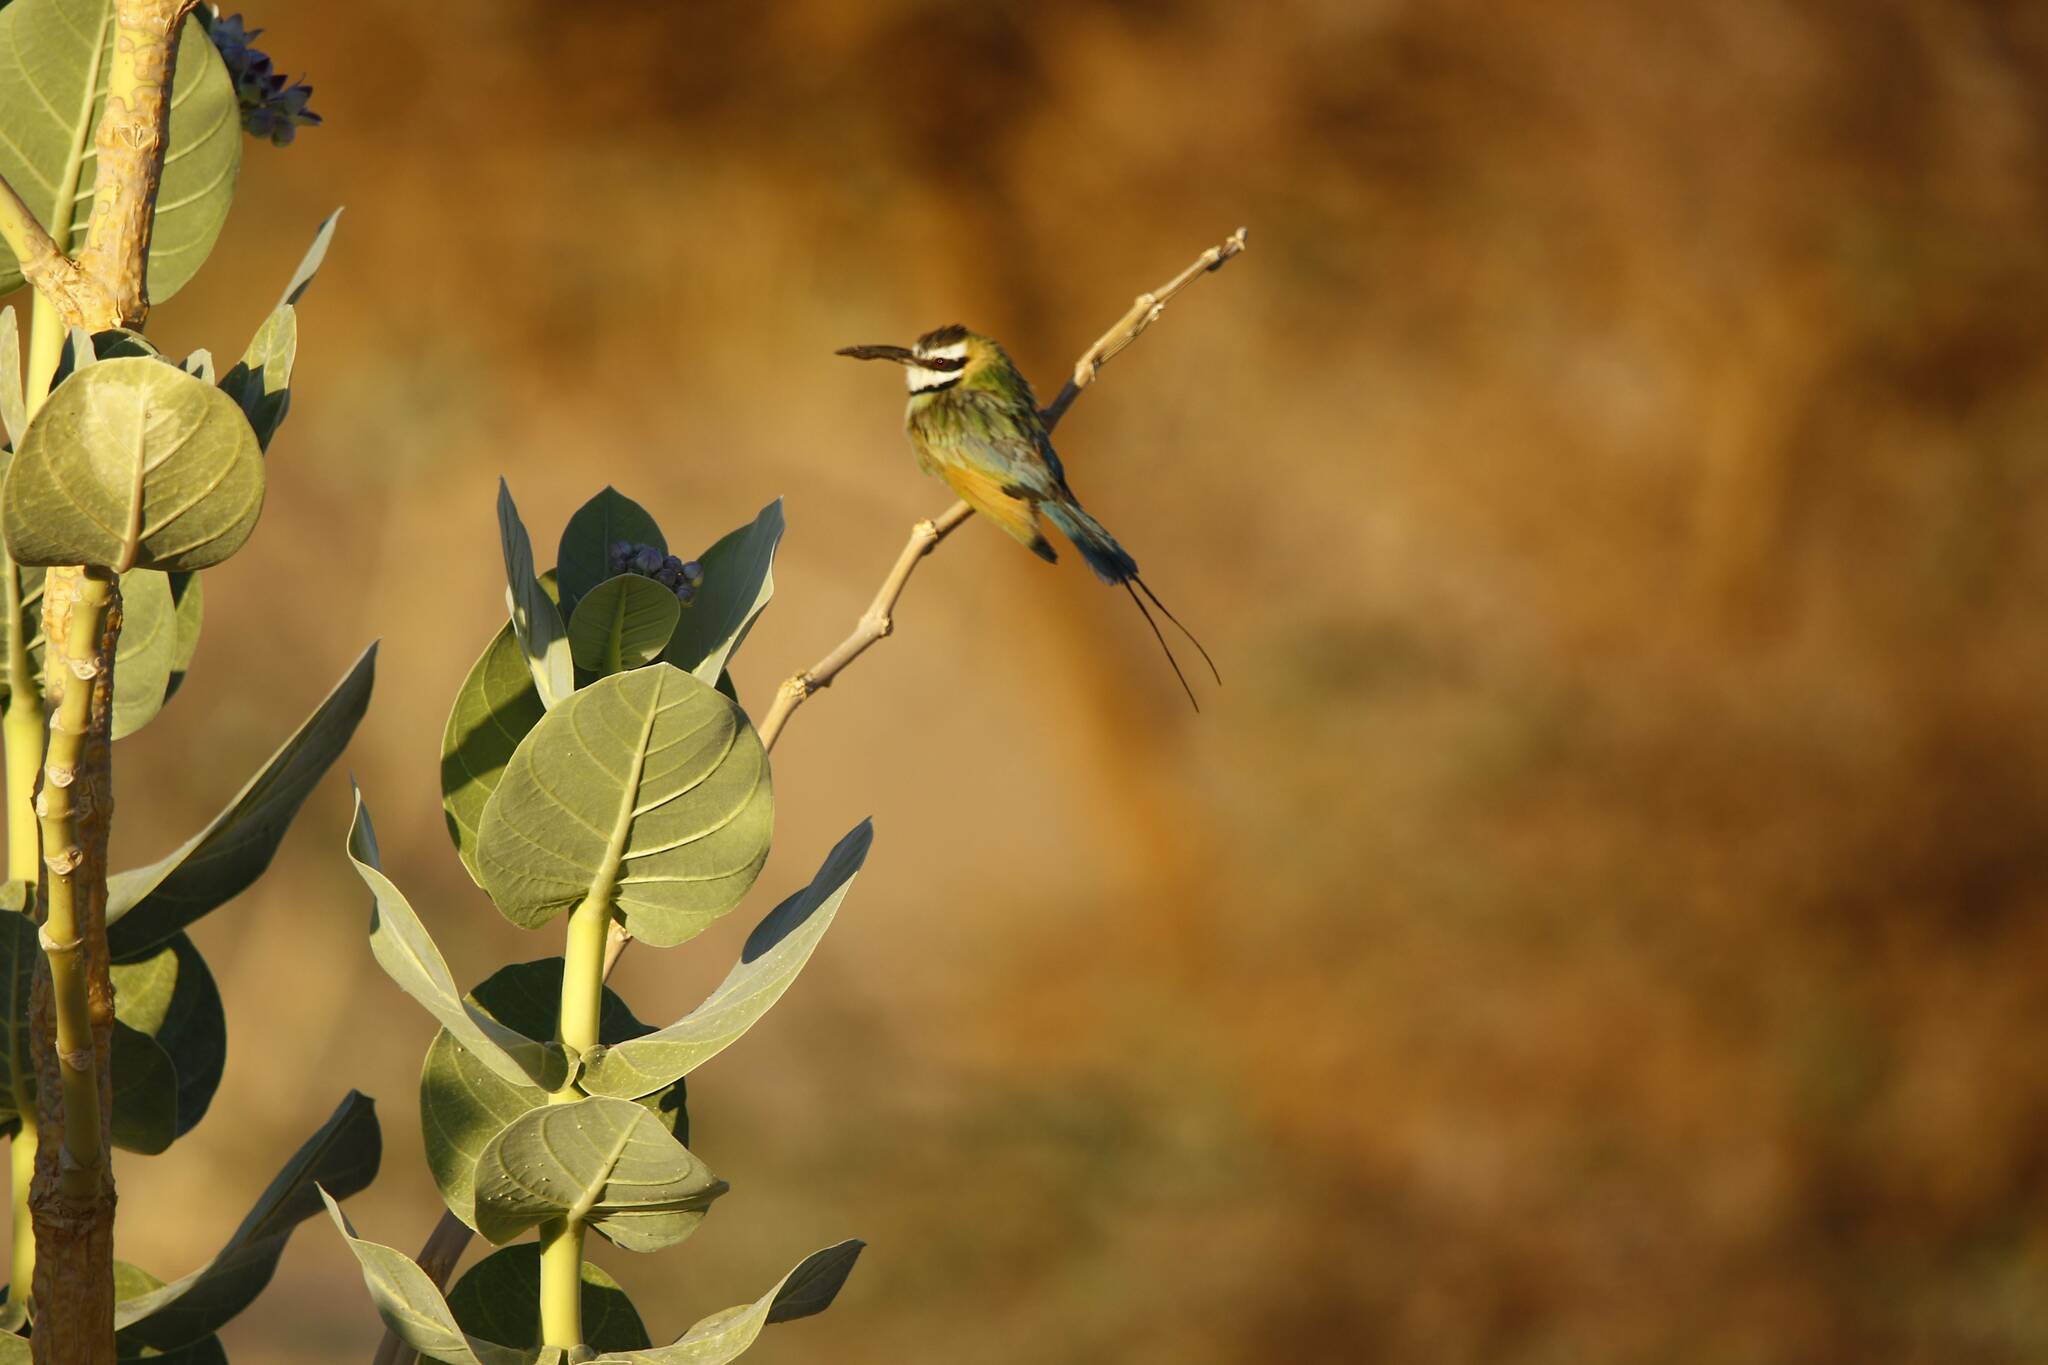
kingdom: Animalia
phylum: Chordata
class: Aves
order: Coraciiformes
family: Meropidae
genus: Merops
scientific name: Merops albicollis
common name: White-throated bee-eater
